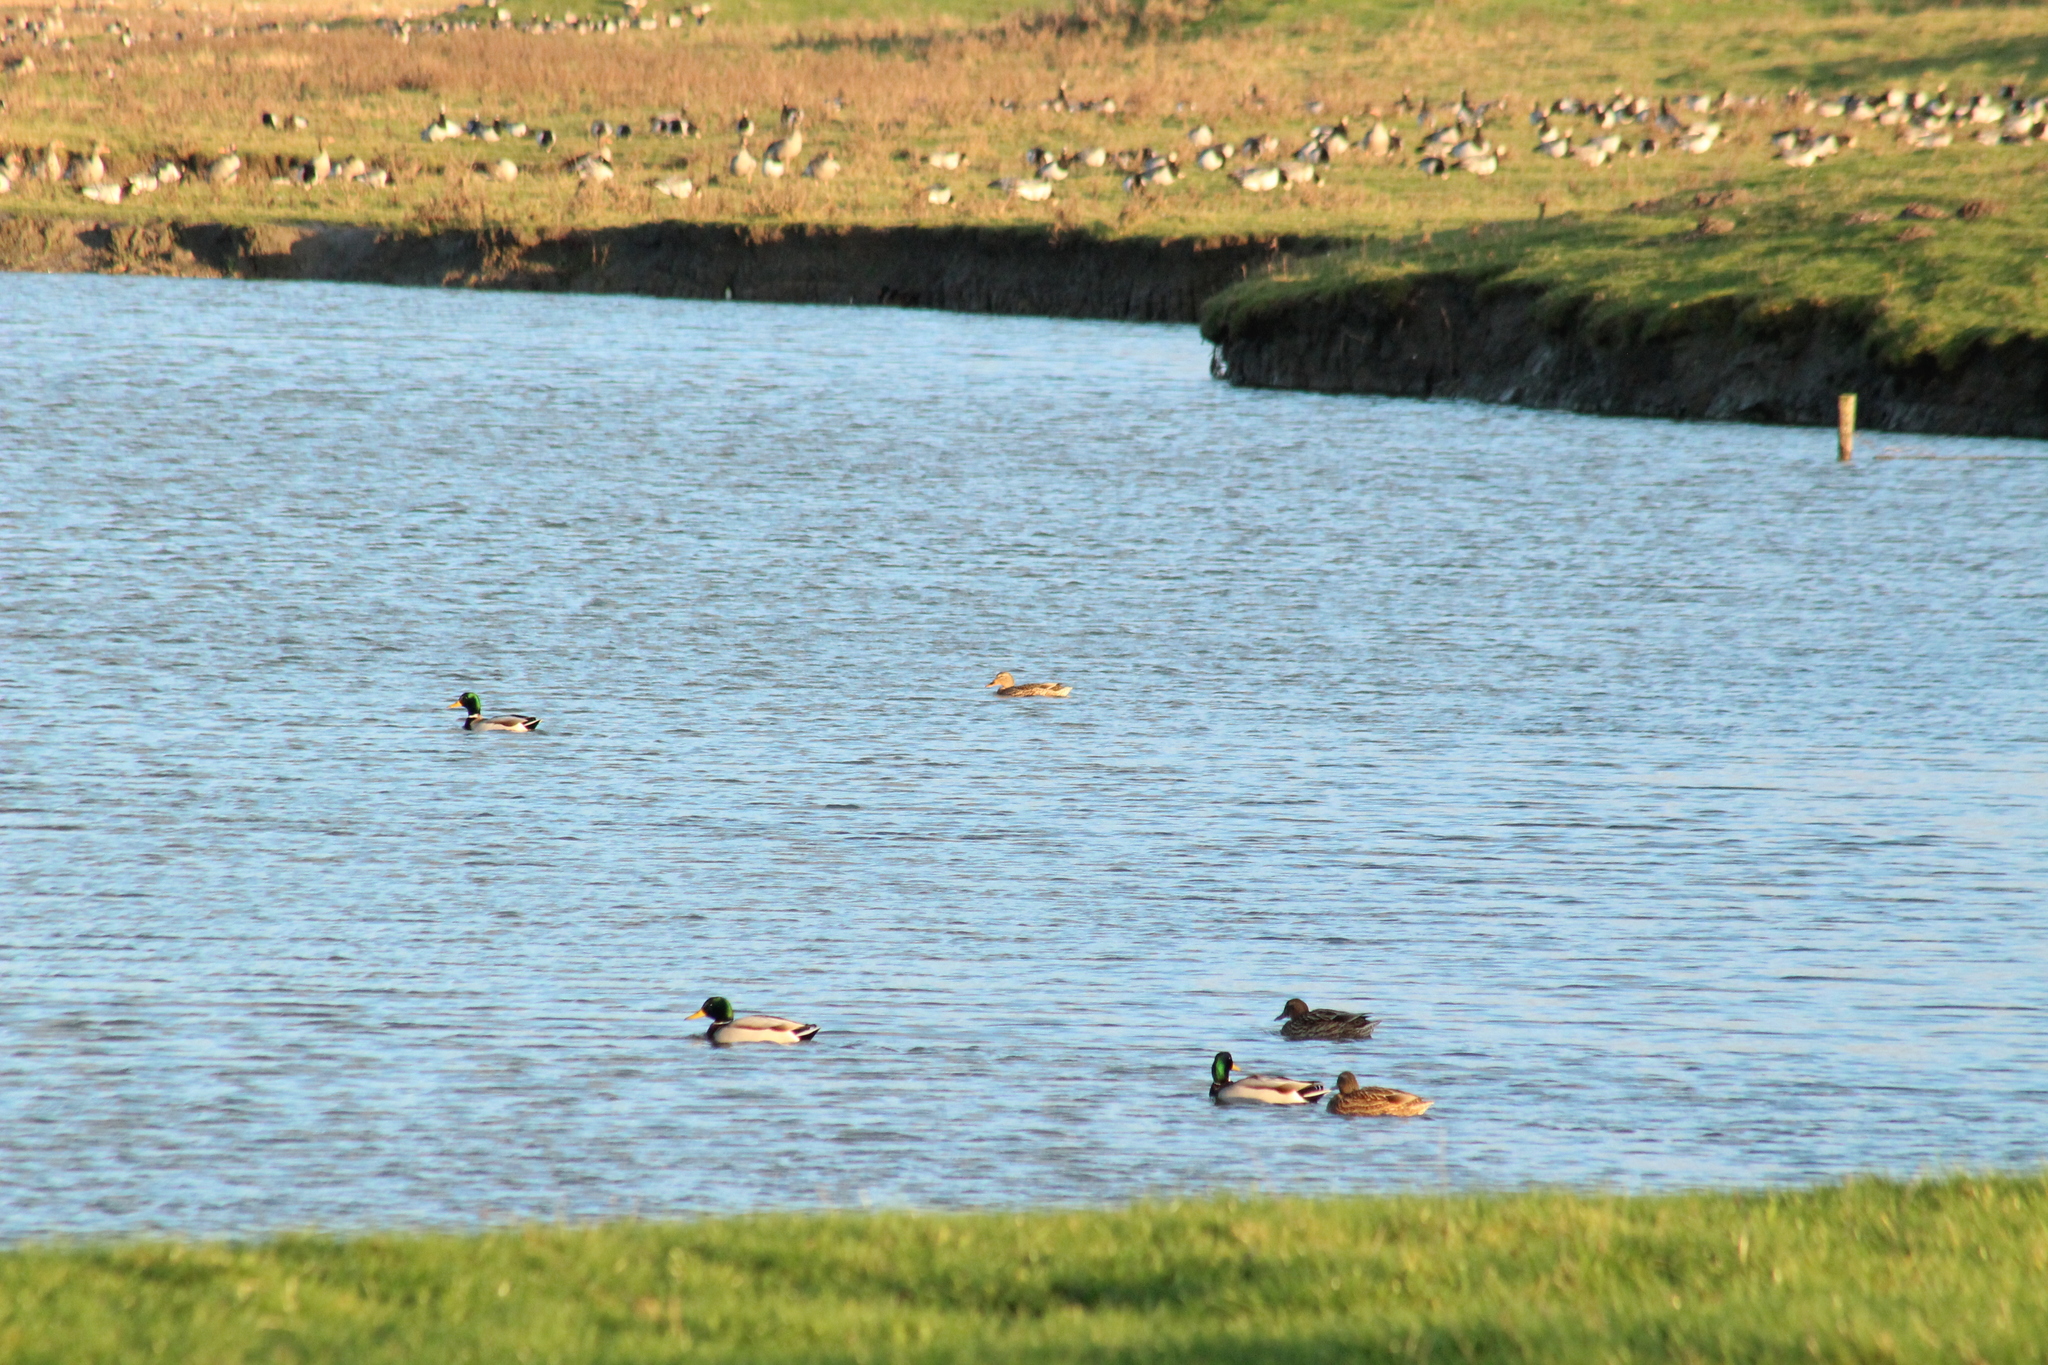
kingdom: Animalia
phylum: Chordata
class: Aves
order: Anseriformes
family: Anatidae
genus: Anas
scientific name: Anas platyrhynchos
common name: Mallard
